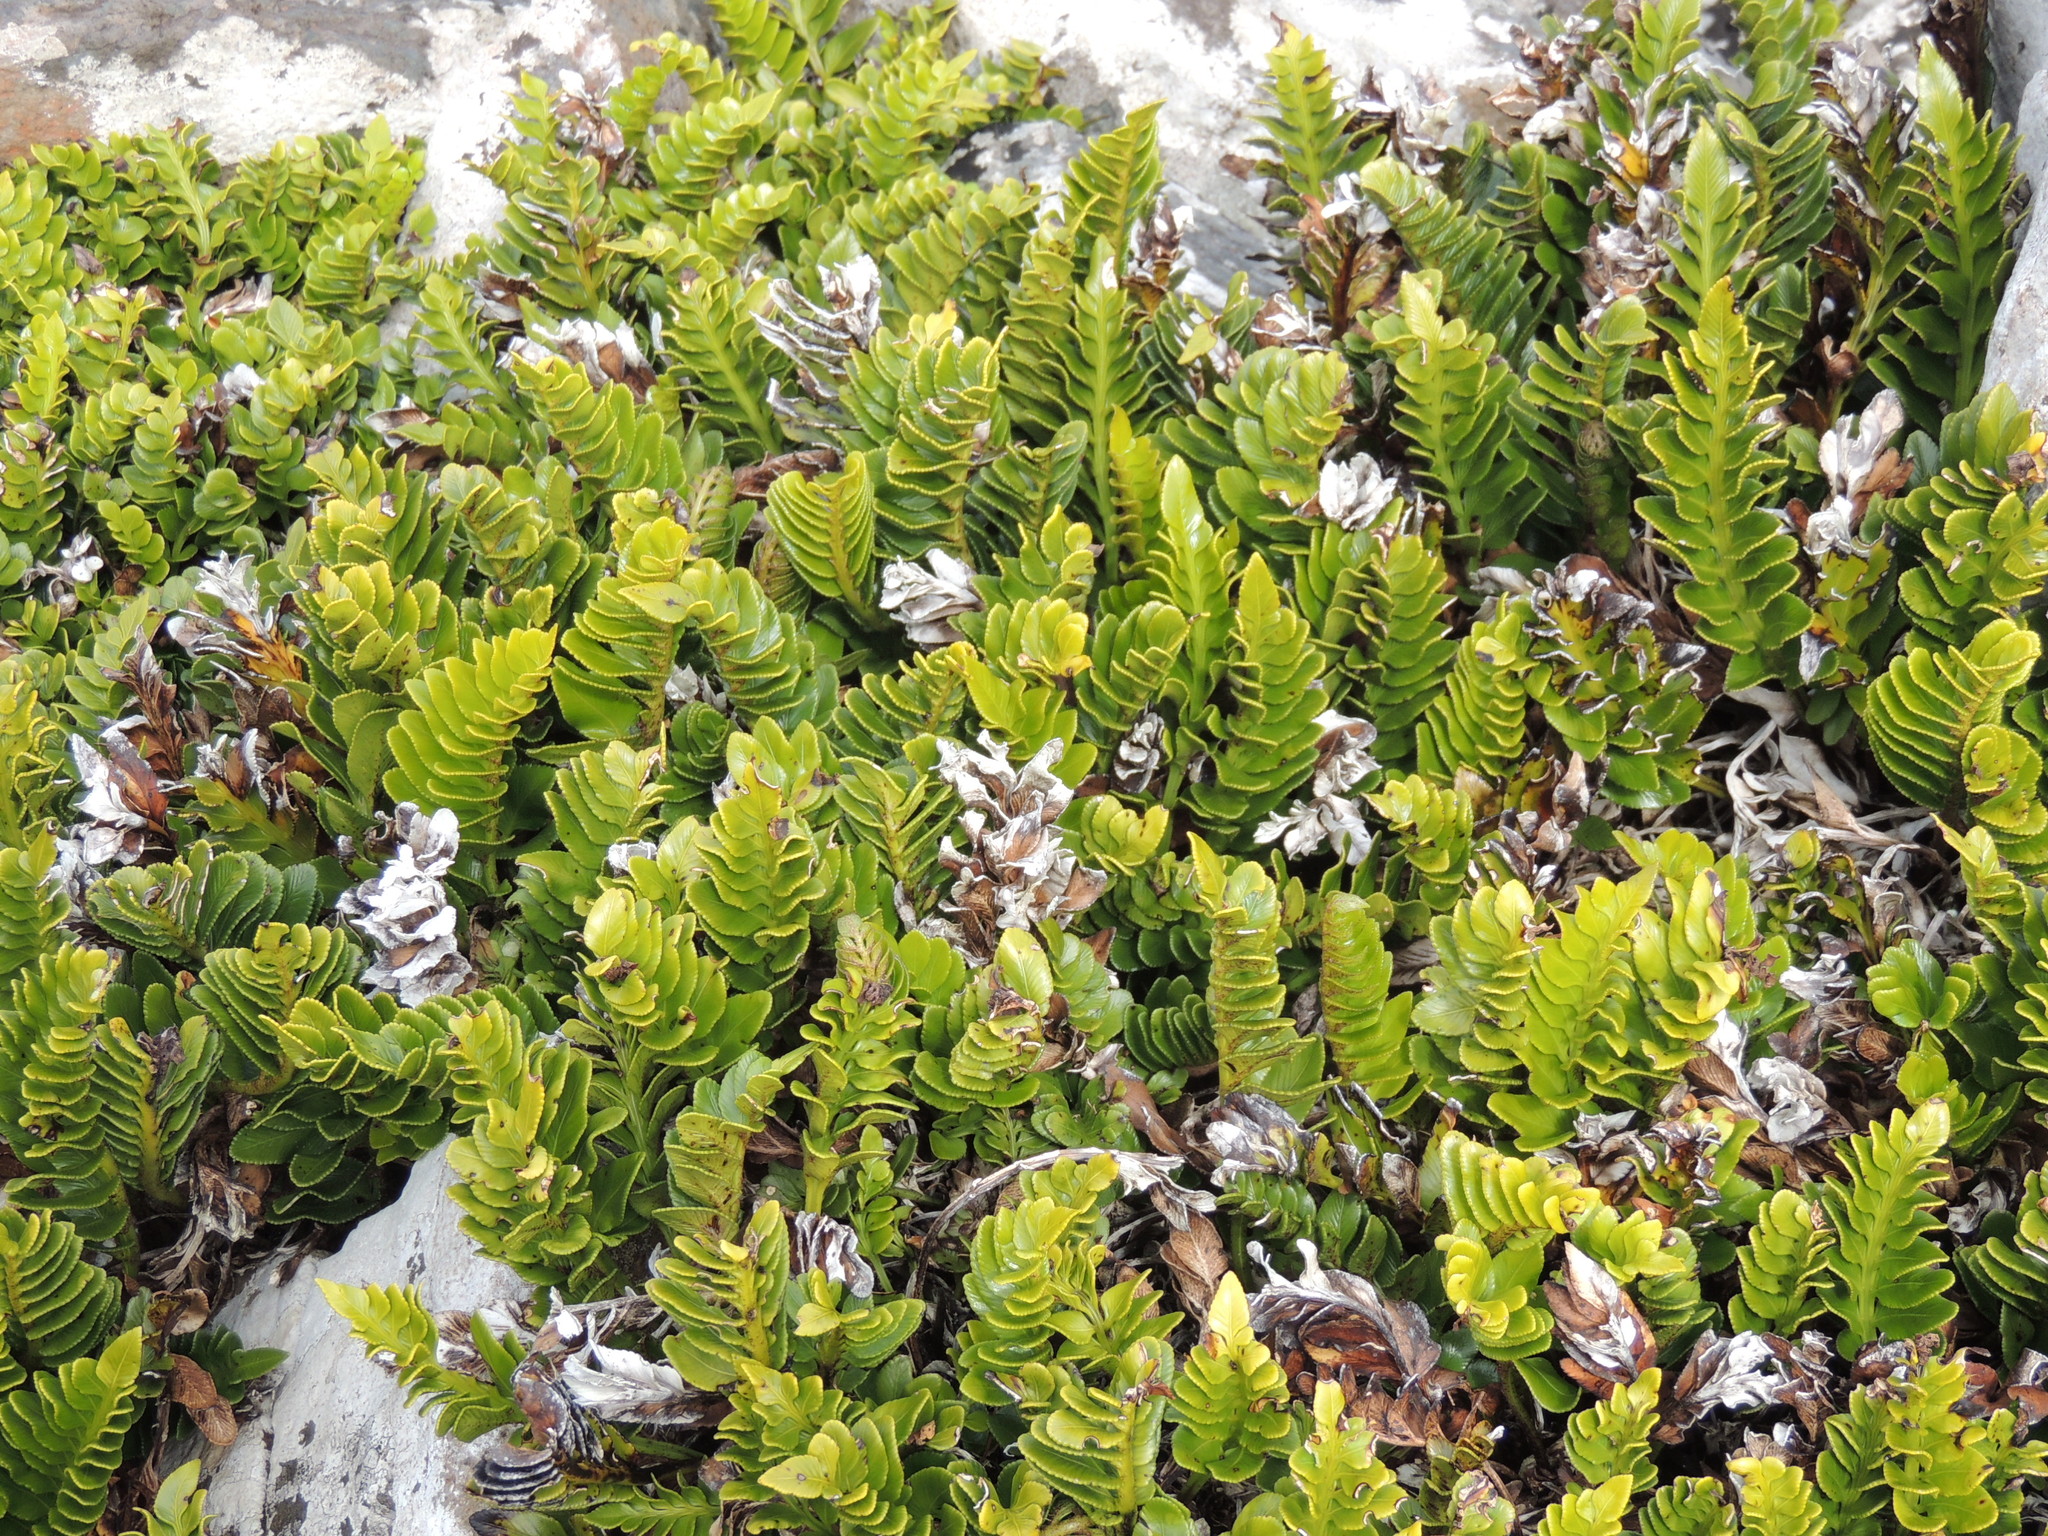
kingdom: Plantae
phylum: Tracheophyta
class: Polypodiopsida
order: Polypodiales
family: Aspleniaceae
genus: Asplenium
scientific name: Asplenium obtusatum
